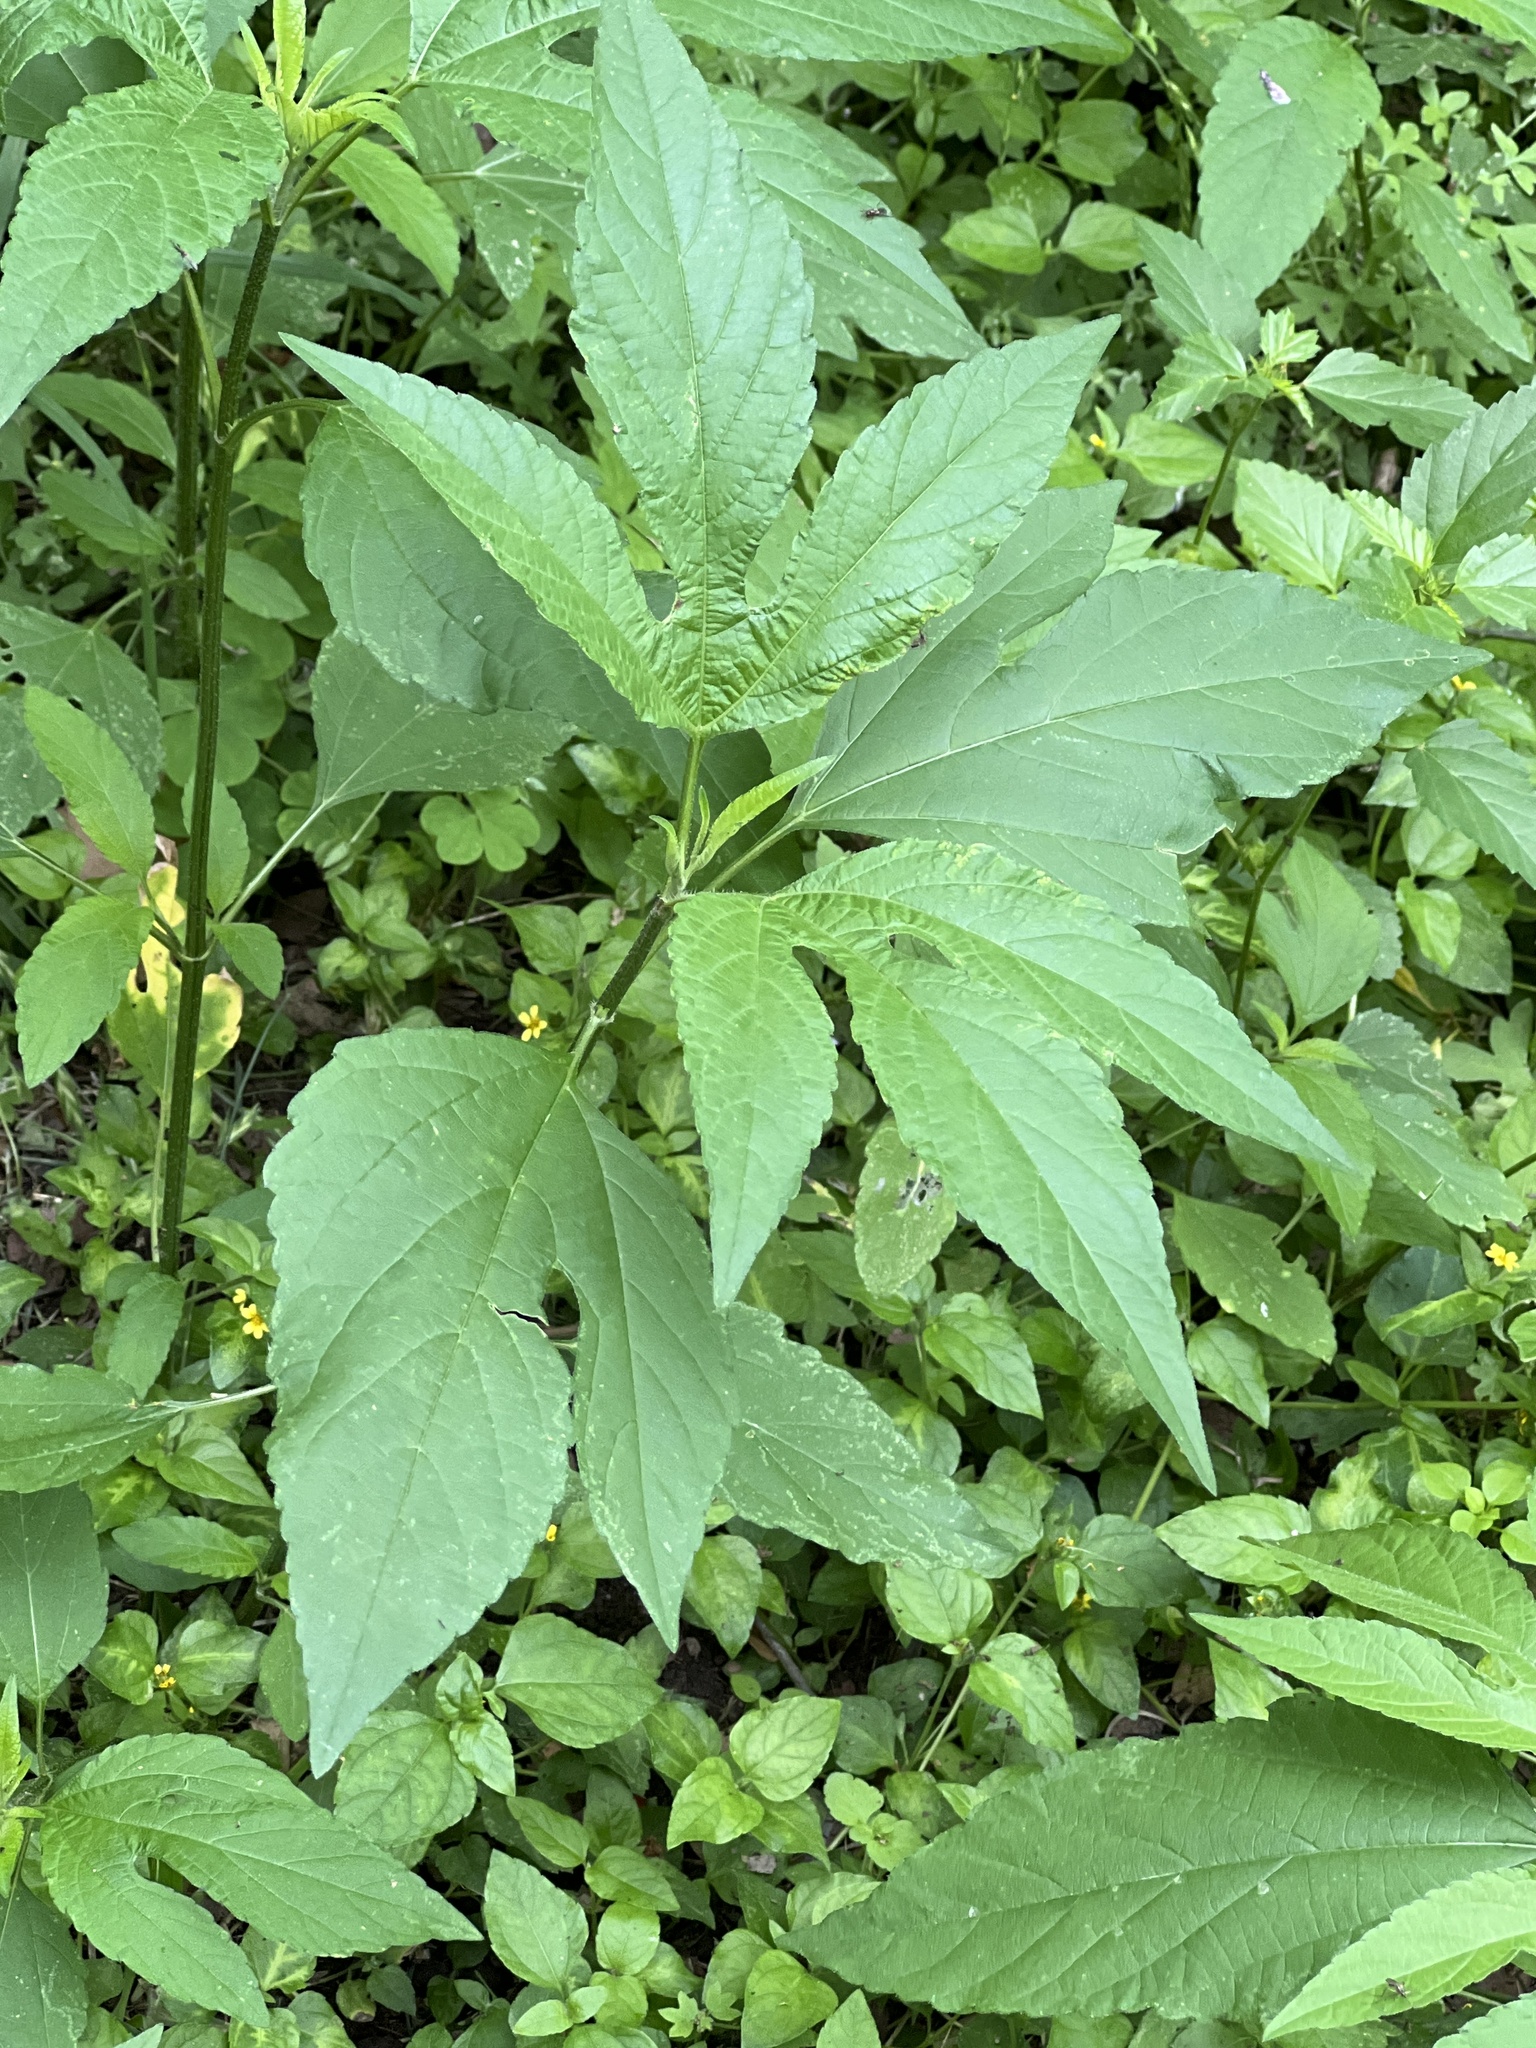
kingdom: Plantae
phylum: Tracheophyta
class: Magnoliopsida
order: Asterales
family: Asteraceae
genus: Ambrosia
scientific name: Ambrosia trifida
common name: Giant ragweed
